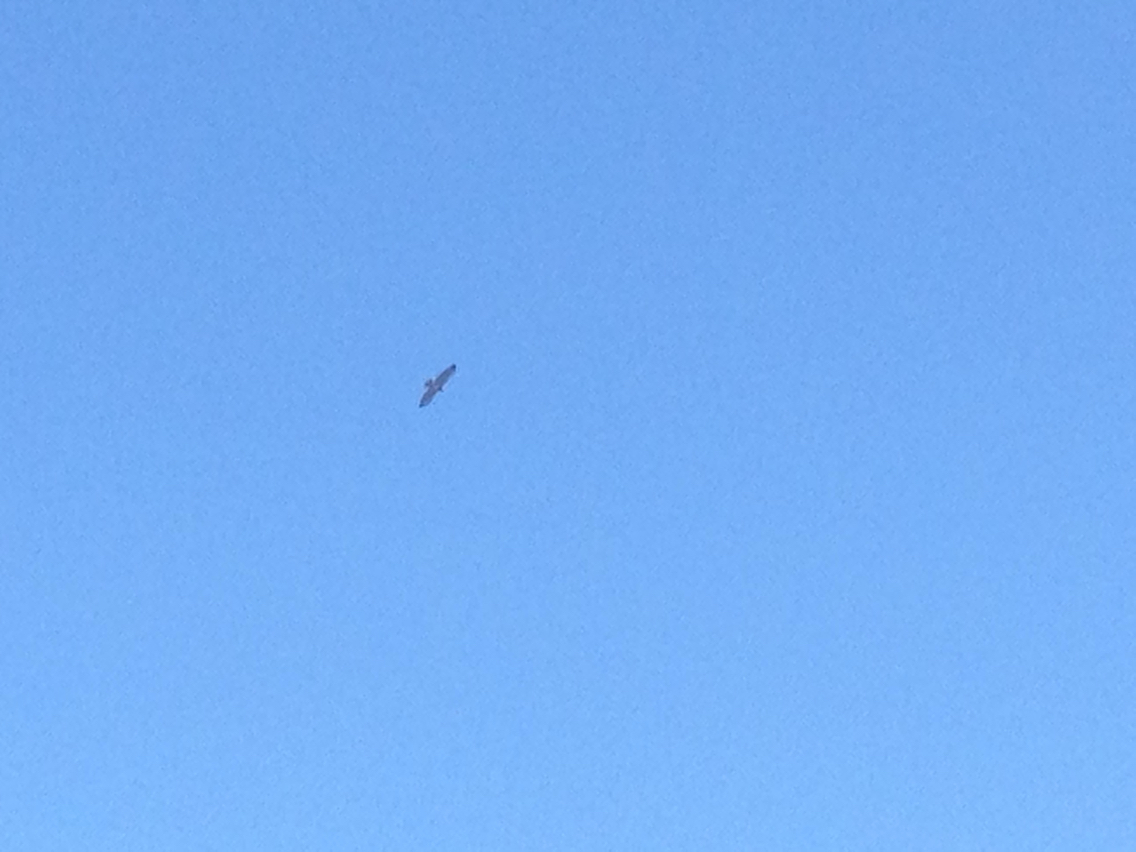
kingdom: Animalia
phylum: Chordata
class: Aves
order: Accipitriformes
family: Accipitridae
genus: Buteo
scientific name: Buteo jamaicensis
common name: Red-tailed hawk
